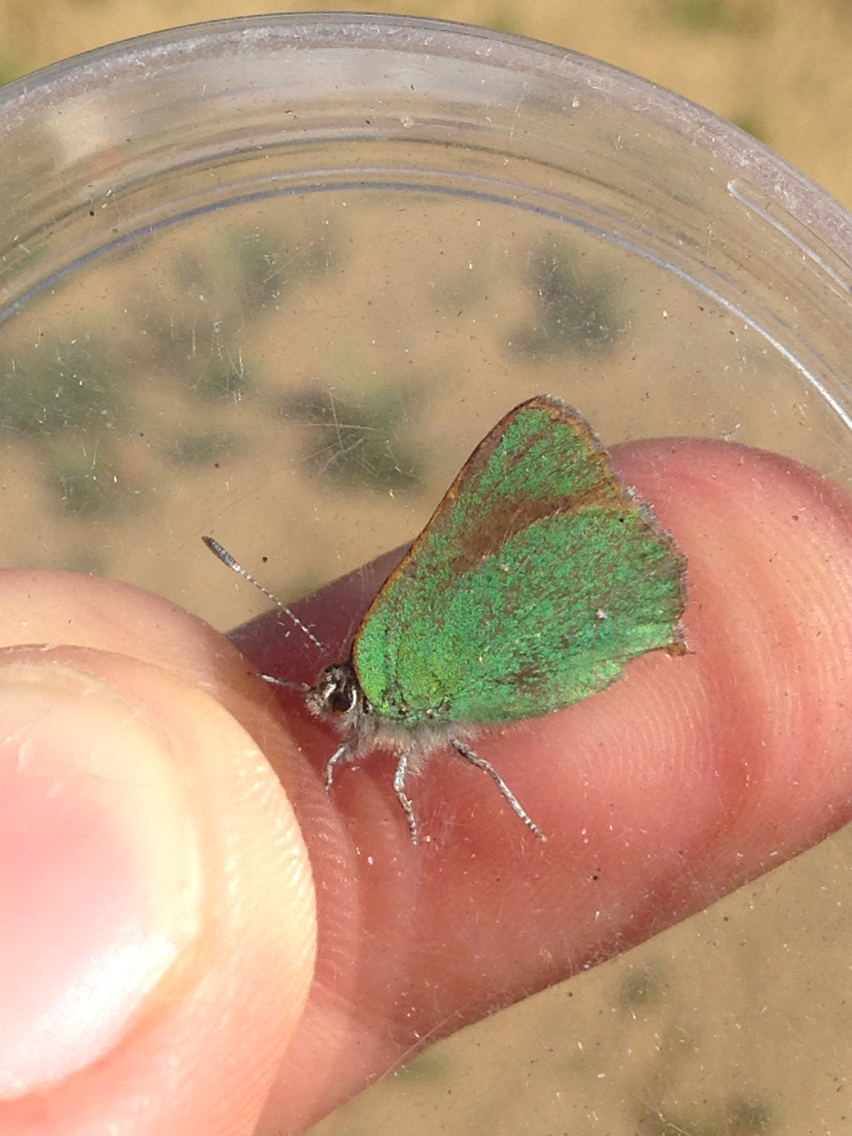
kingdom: Animalia
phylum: Arthropoda
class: Insecta
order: Lepidoptera
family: Lycaenidae
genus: Callophrys
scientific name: Callophrys dumetorum
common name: Bramble hairstreak
